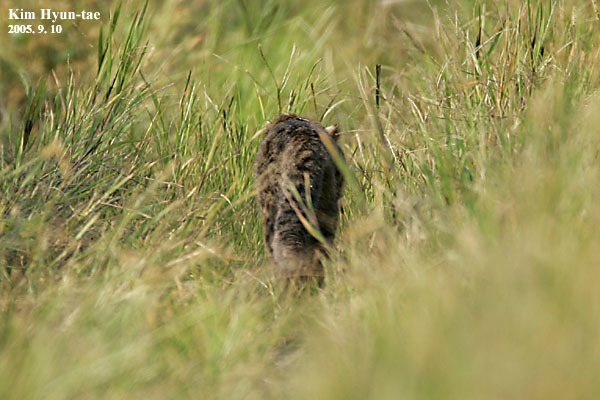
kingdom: Animalia
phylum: Chordata
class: Mammalia
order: Carnivora
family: Felidae
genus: Prionailurus
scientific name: Prionailurus bengalensis
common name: Leopard cat
